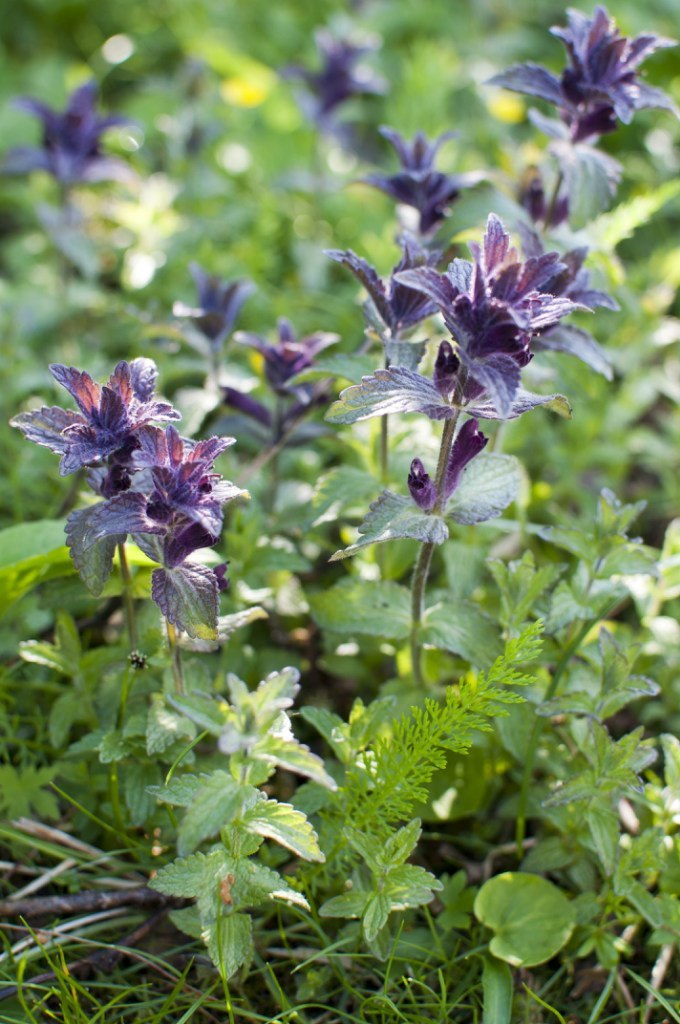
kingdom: Plantae
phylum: Tracheophyta
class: Magnoliopsida
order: Lamiales
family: Orobanchaceae
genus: Bartsia
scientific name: Bartsia alpina
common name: Alpine bartsia
